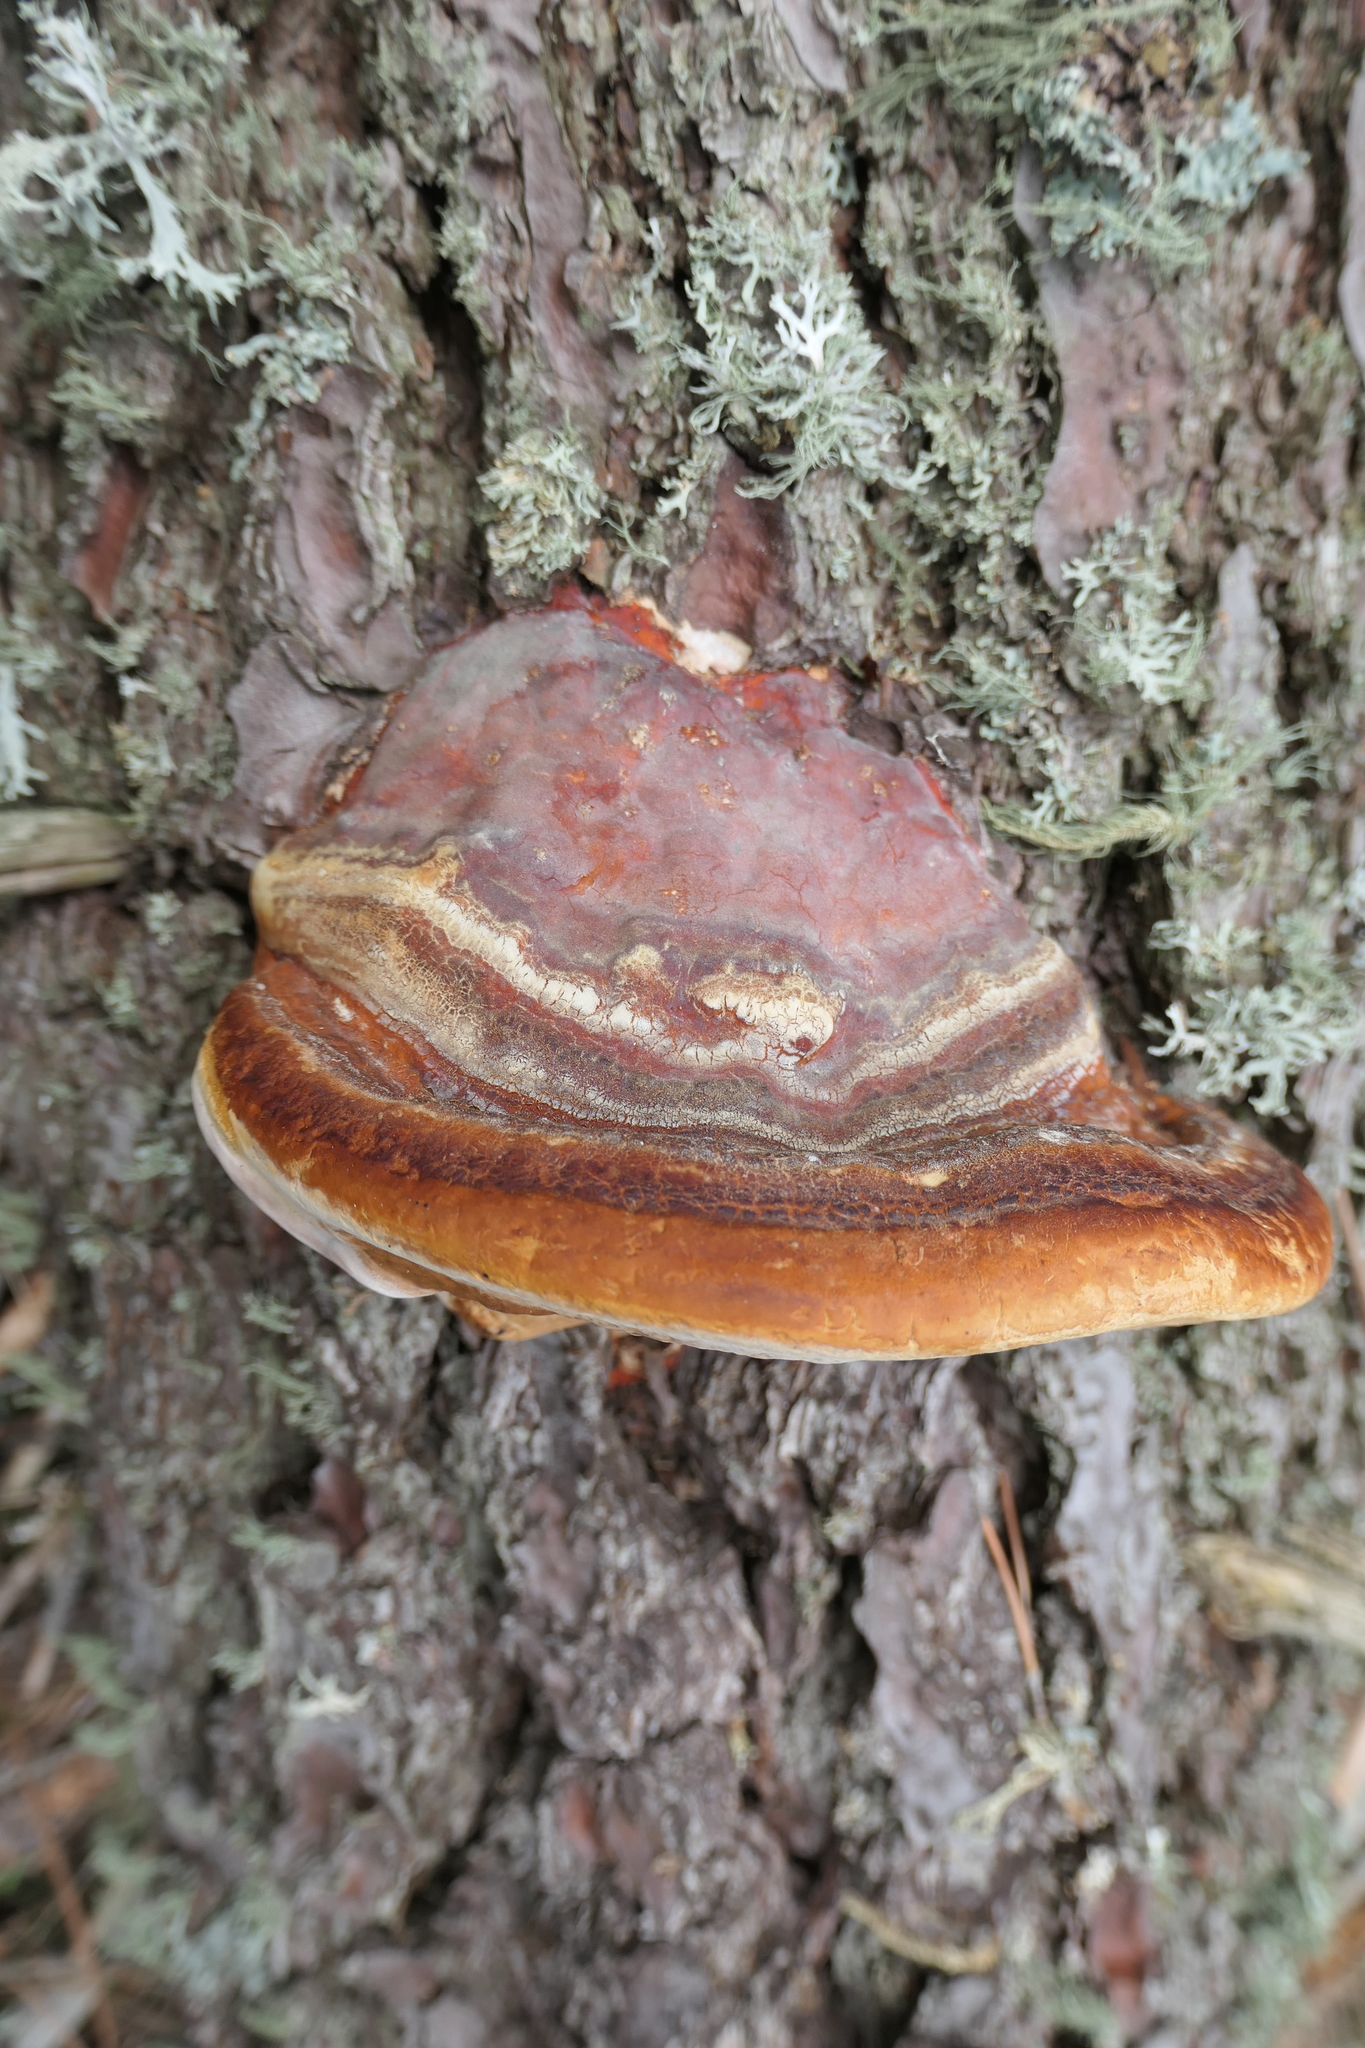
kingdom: Fungi
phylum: Basidiomycota
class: Agaricomycetes
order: Polyporales
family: Fomitopsidaceae
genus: Fomitopsis
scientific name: Fomitopsis pinicola
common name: Red-belted bracket
